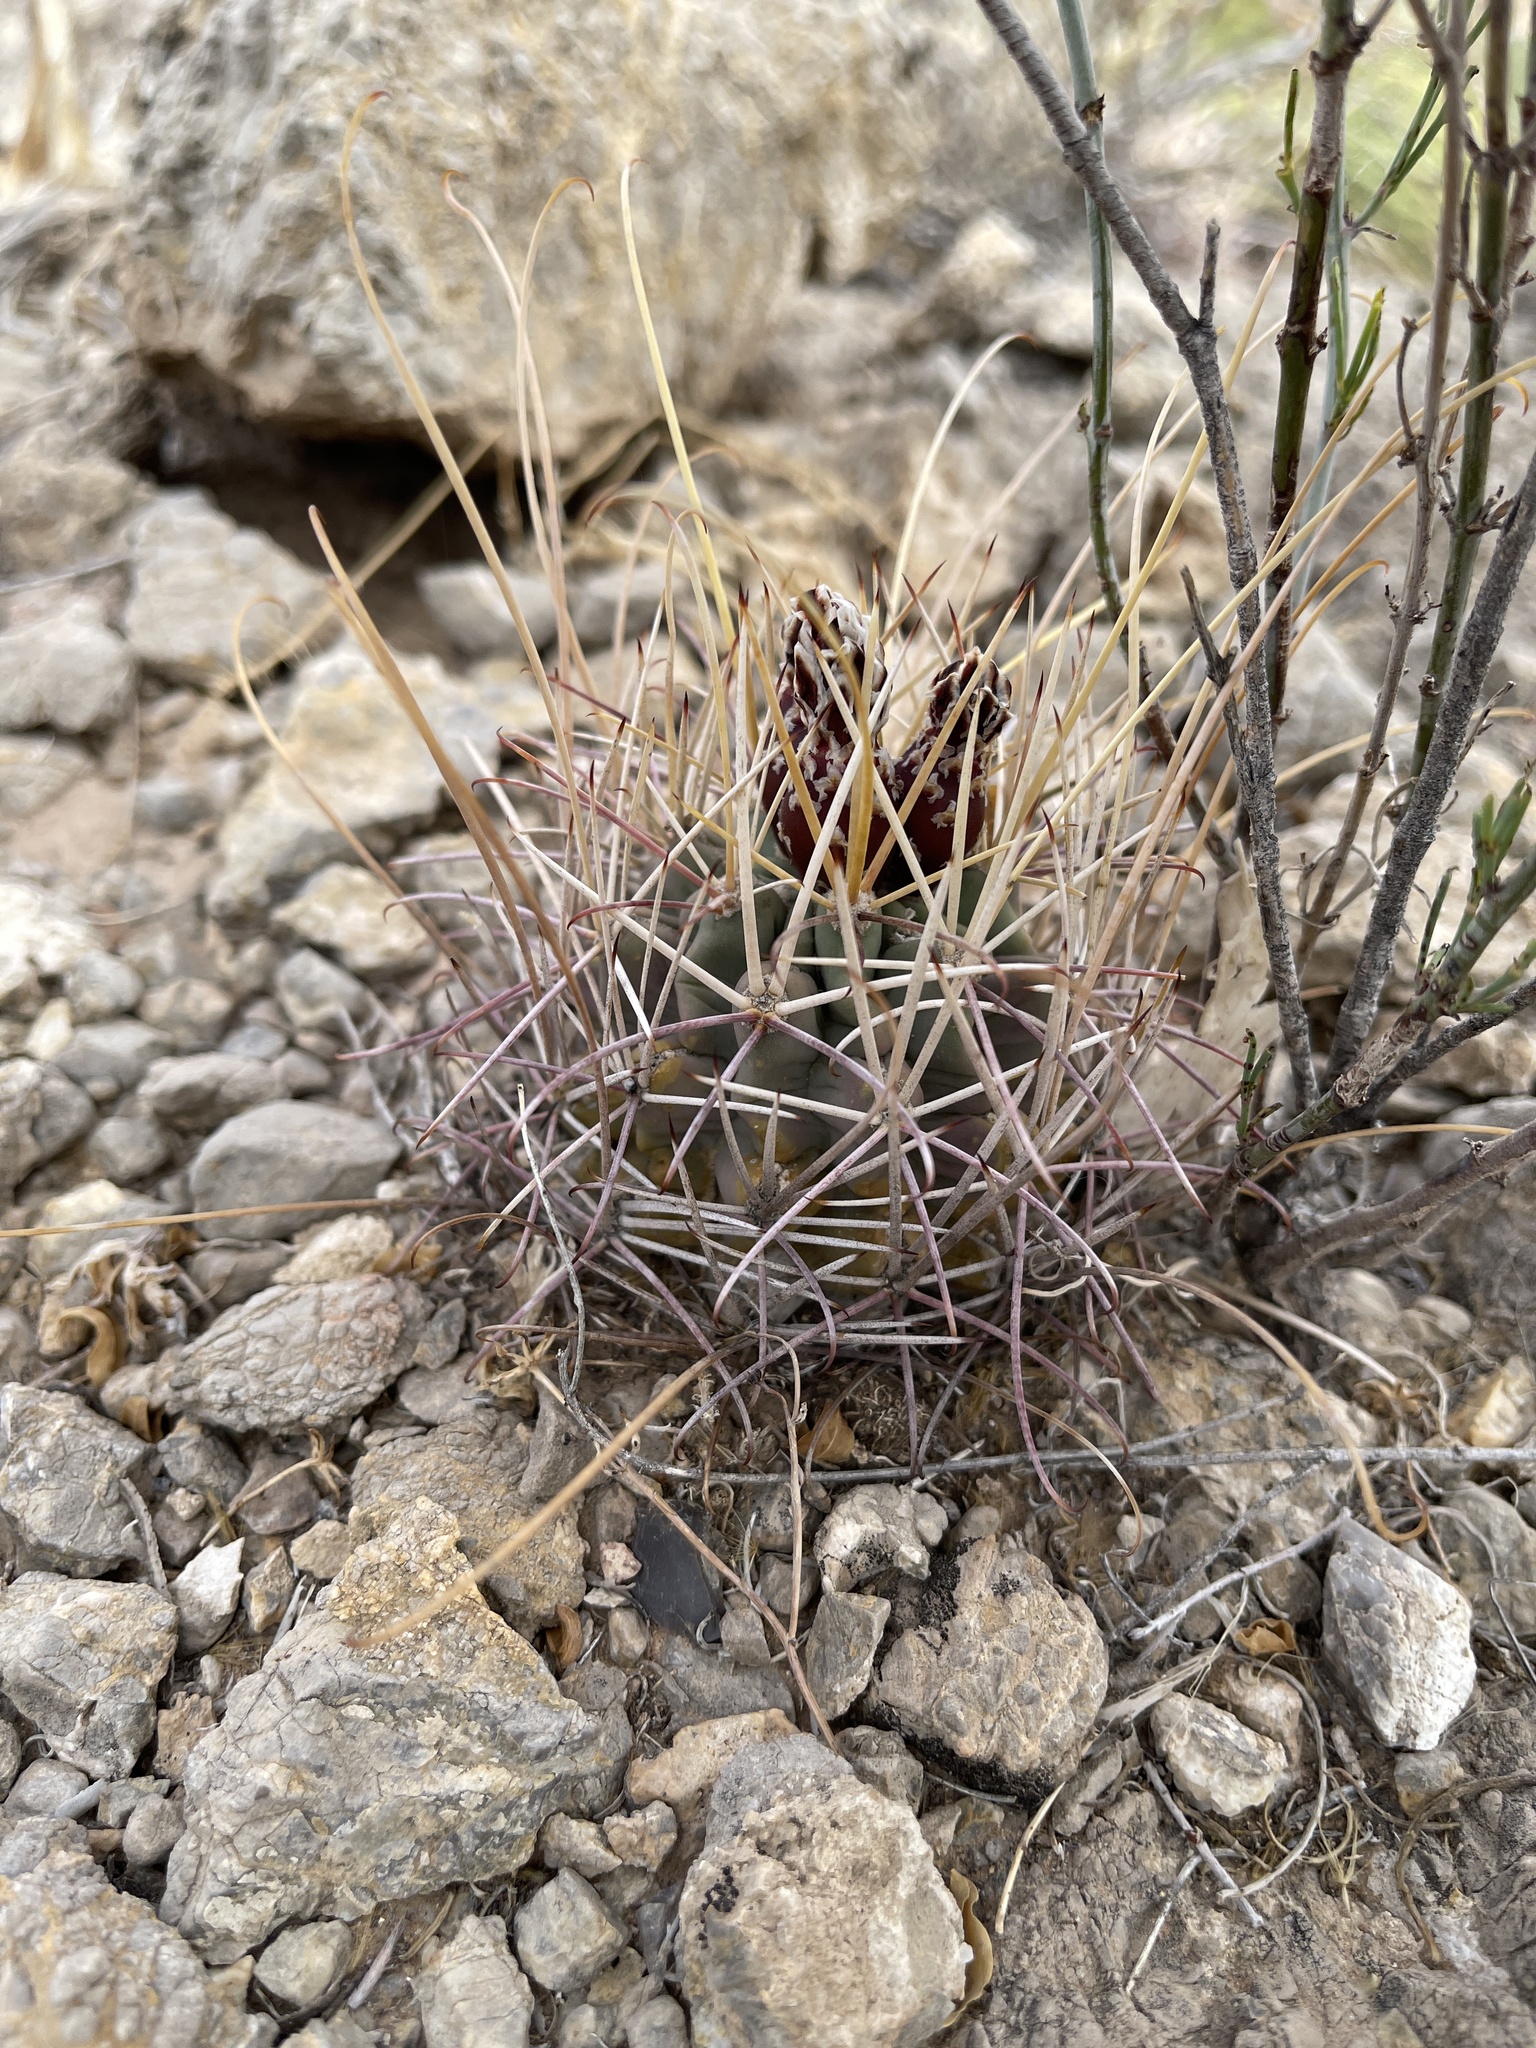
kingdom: Plantae
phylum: Tracheophyta
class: Magnoliopsida
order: Caryophyllales
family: Cactaceae
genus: Ferocactus
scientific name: Ferocactus uncinatus
